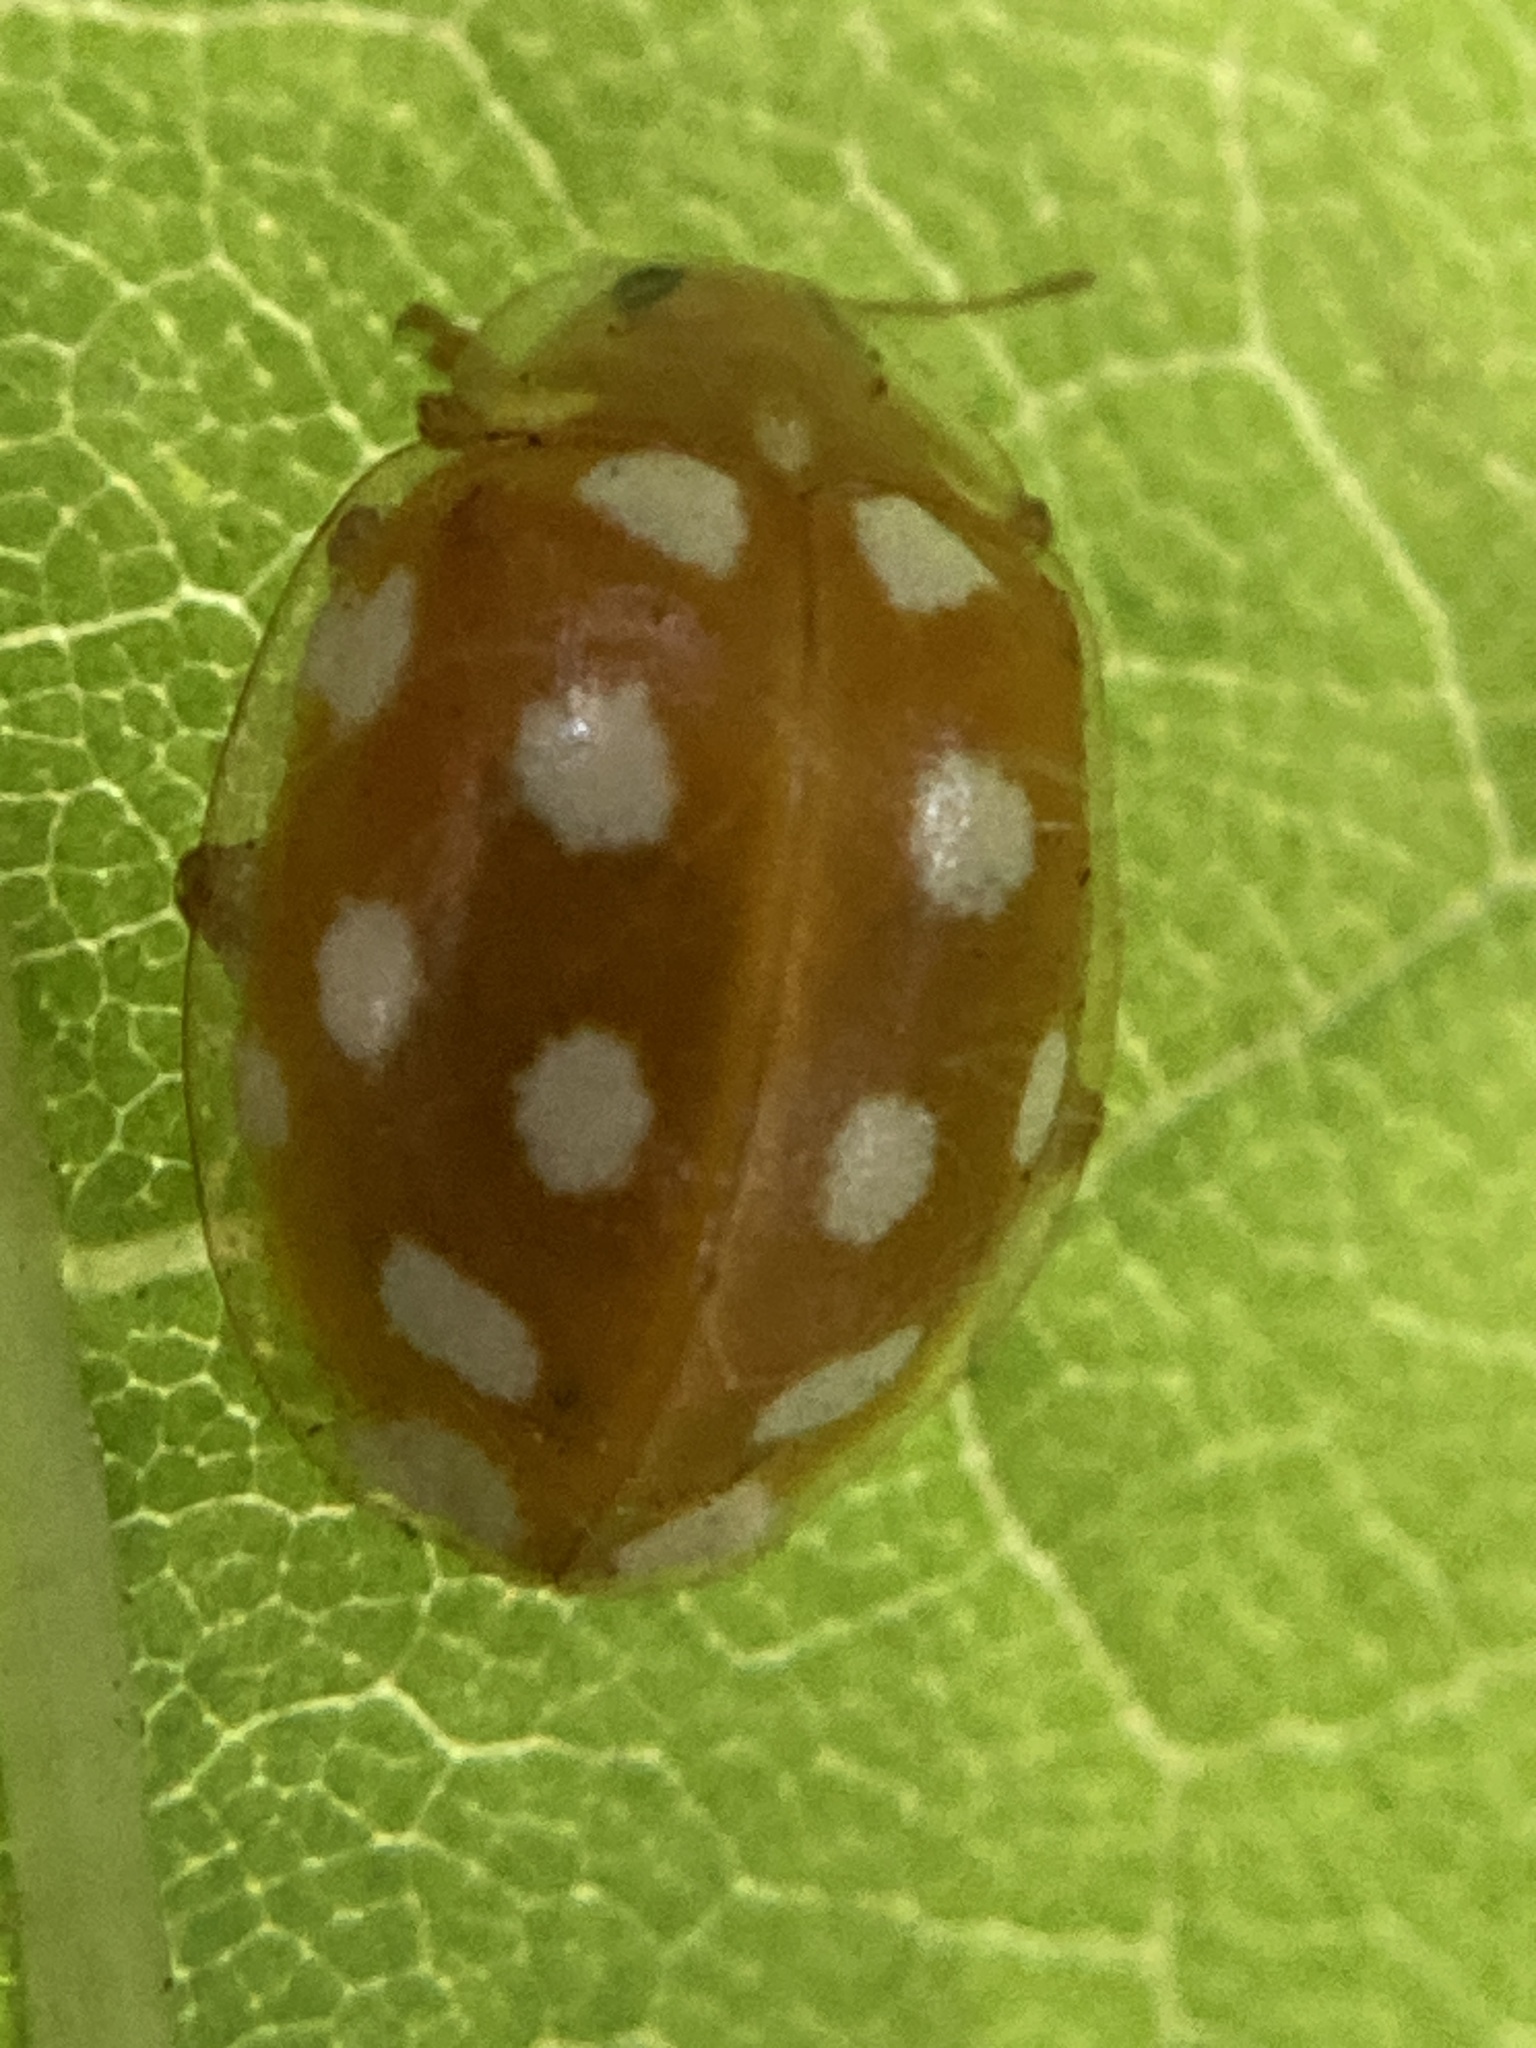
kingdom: Animalia
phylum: Arthropoda
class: Insecta
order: Coleoptera
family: Coccinellidae
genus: Halyzia
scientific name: Halyzia sedecimguttata
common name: Orange ladybird
